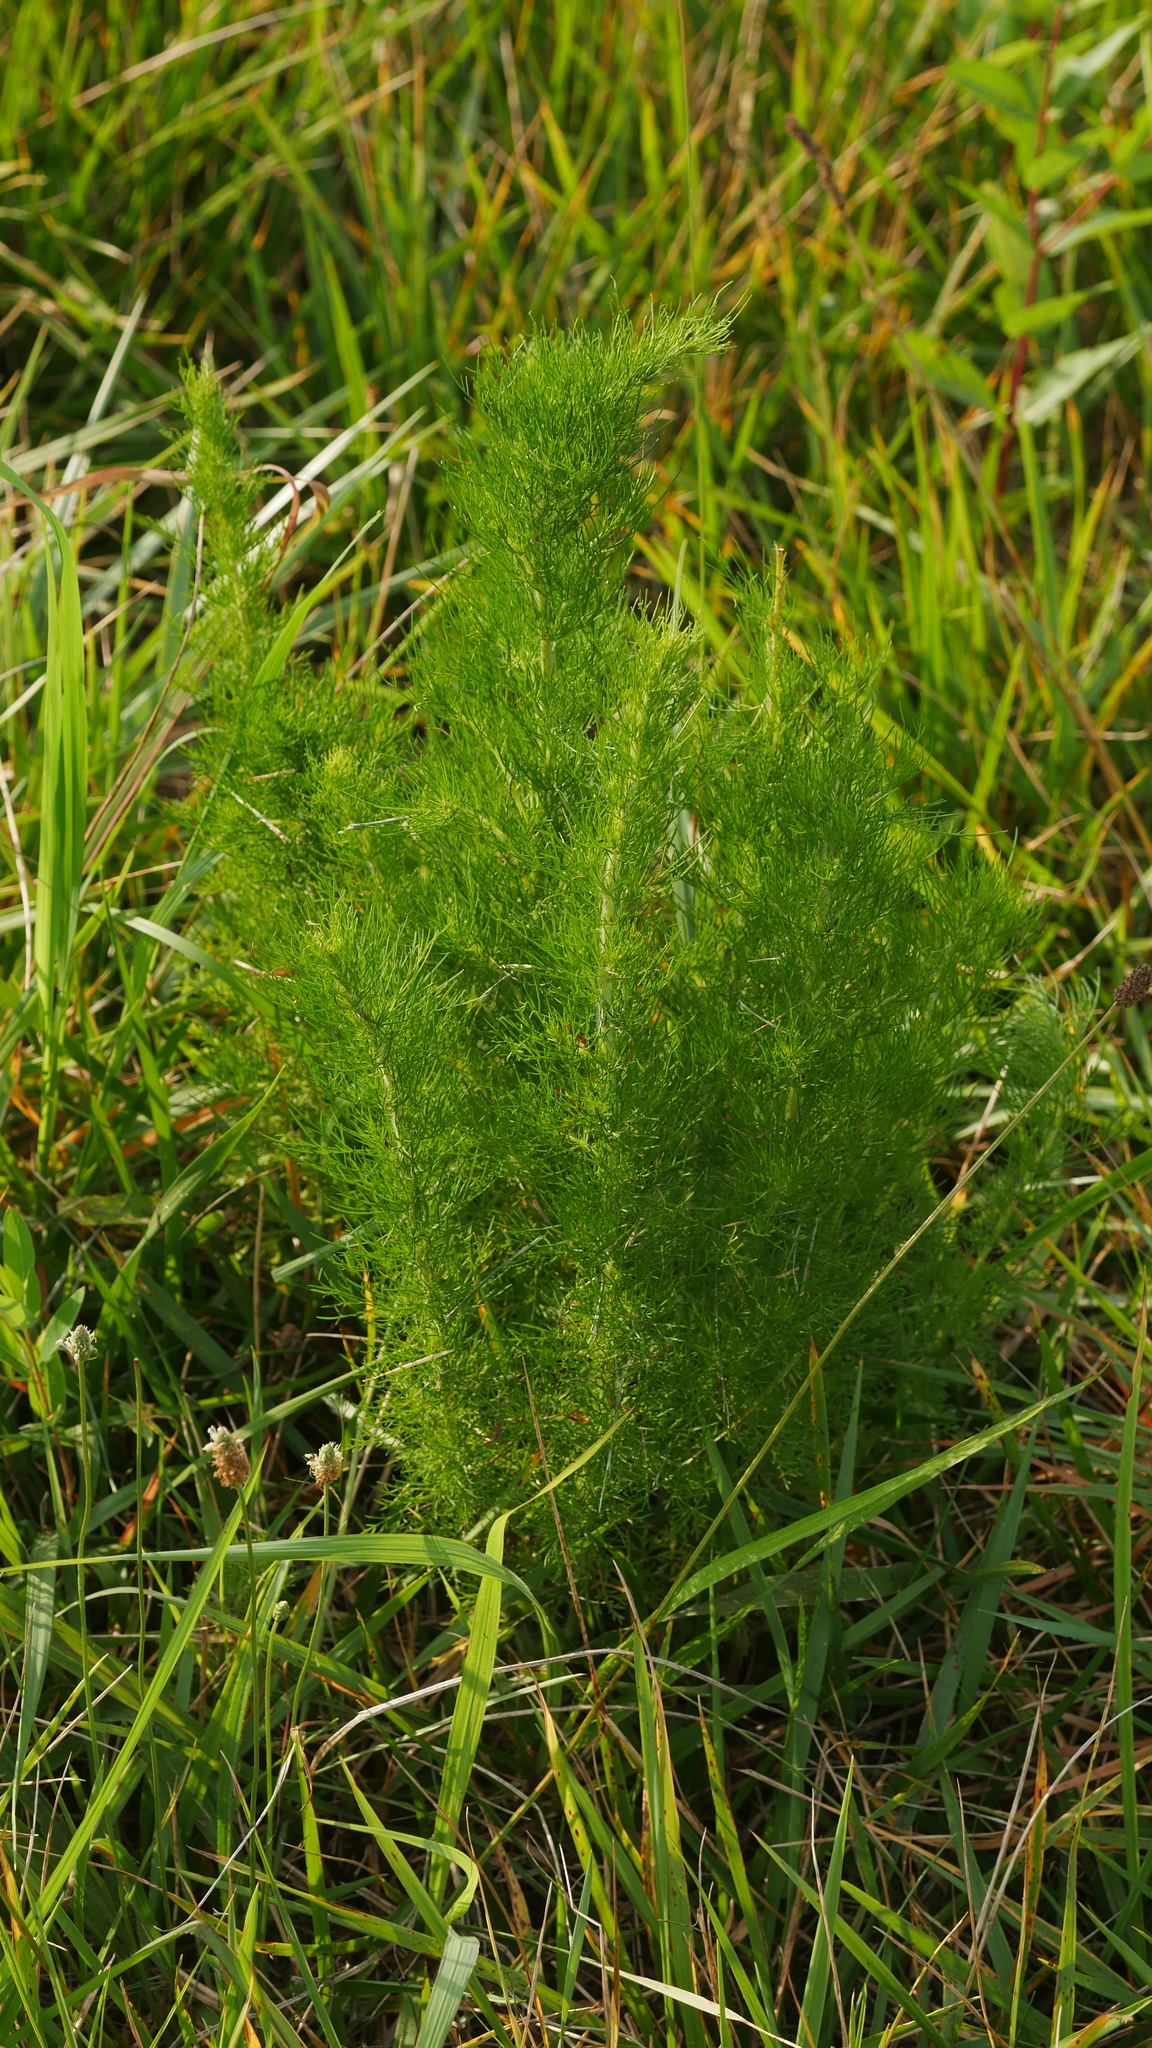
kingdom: Plantae
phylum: Tracheophyta
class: Magnoliopsida
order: Asterales
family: Asteraceae
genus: Eupatorium
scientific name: Eupatorium capillifolium
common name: Dog-fennel
